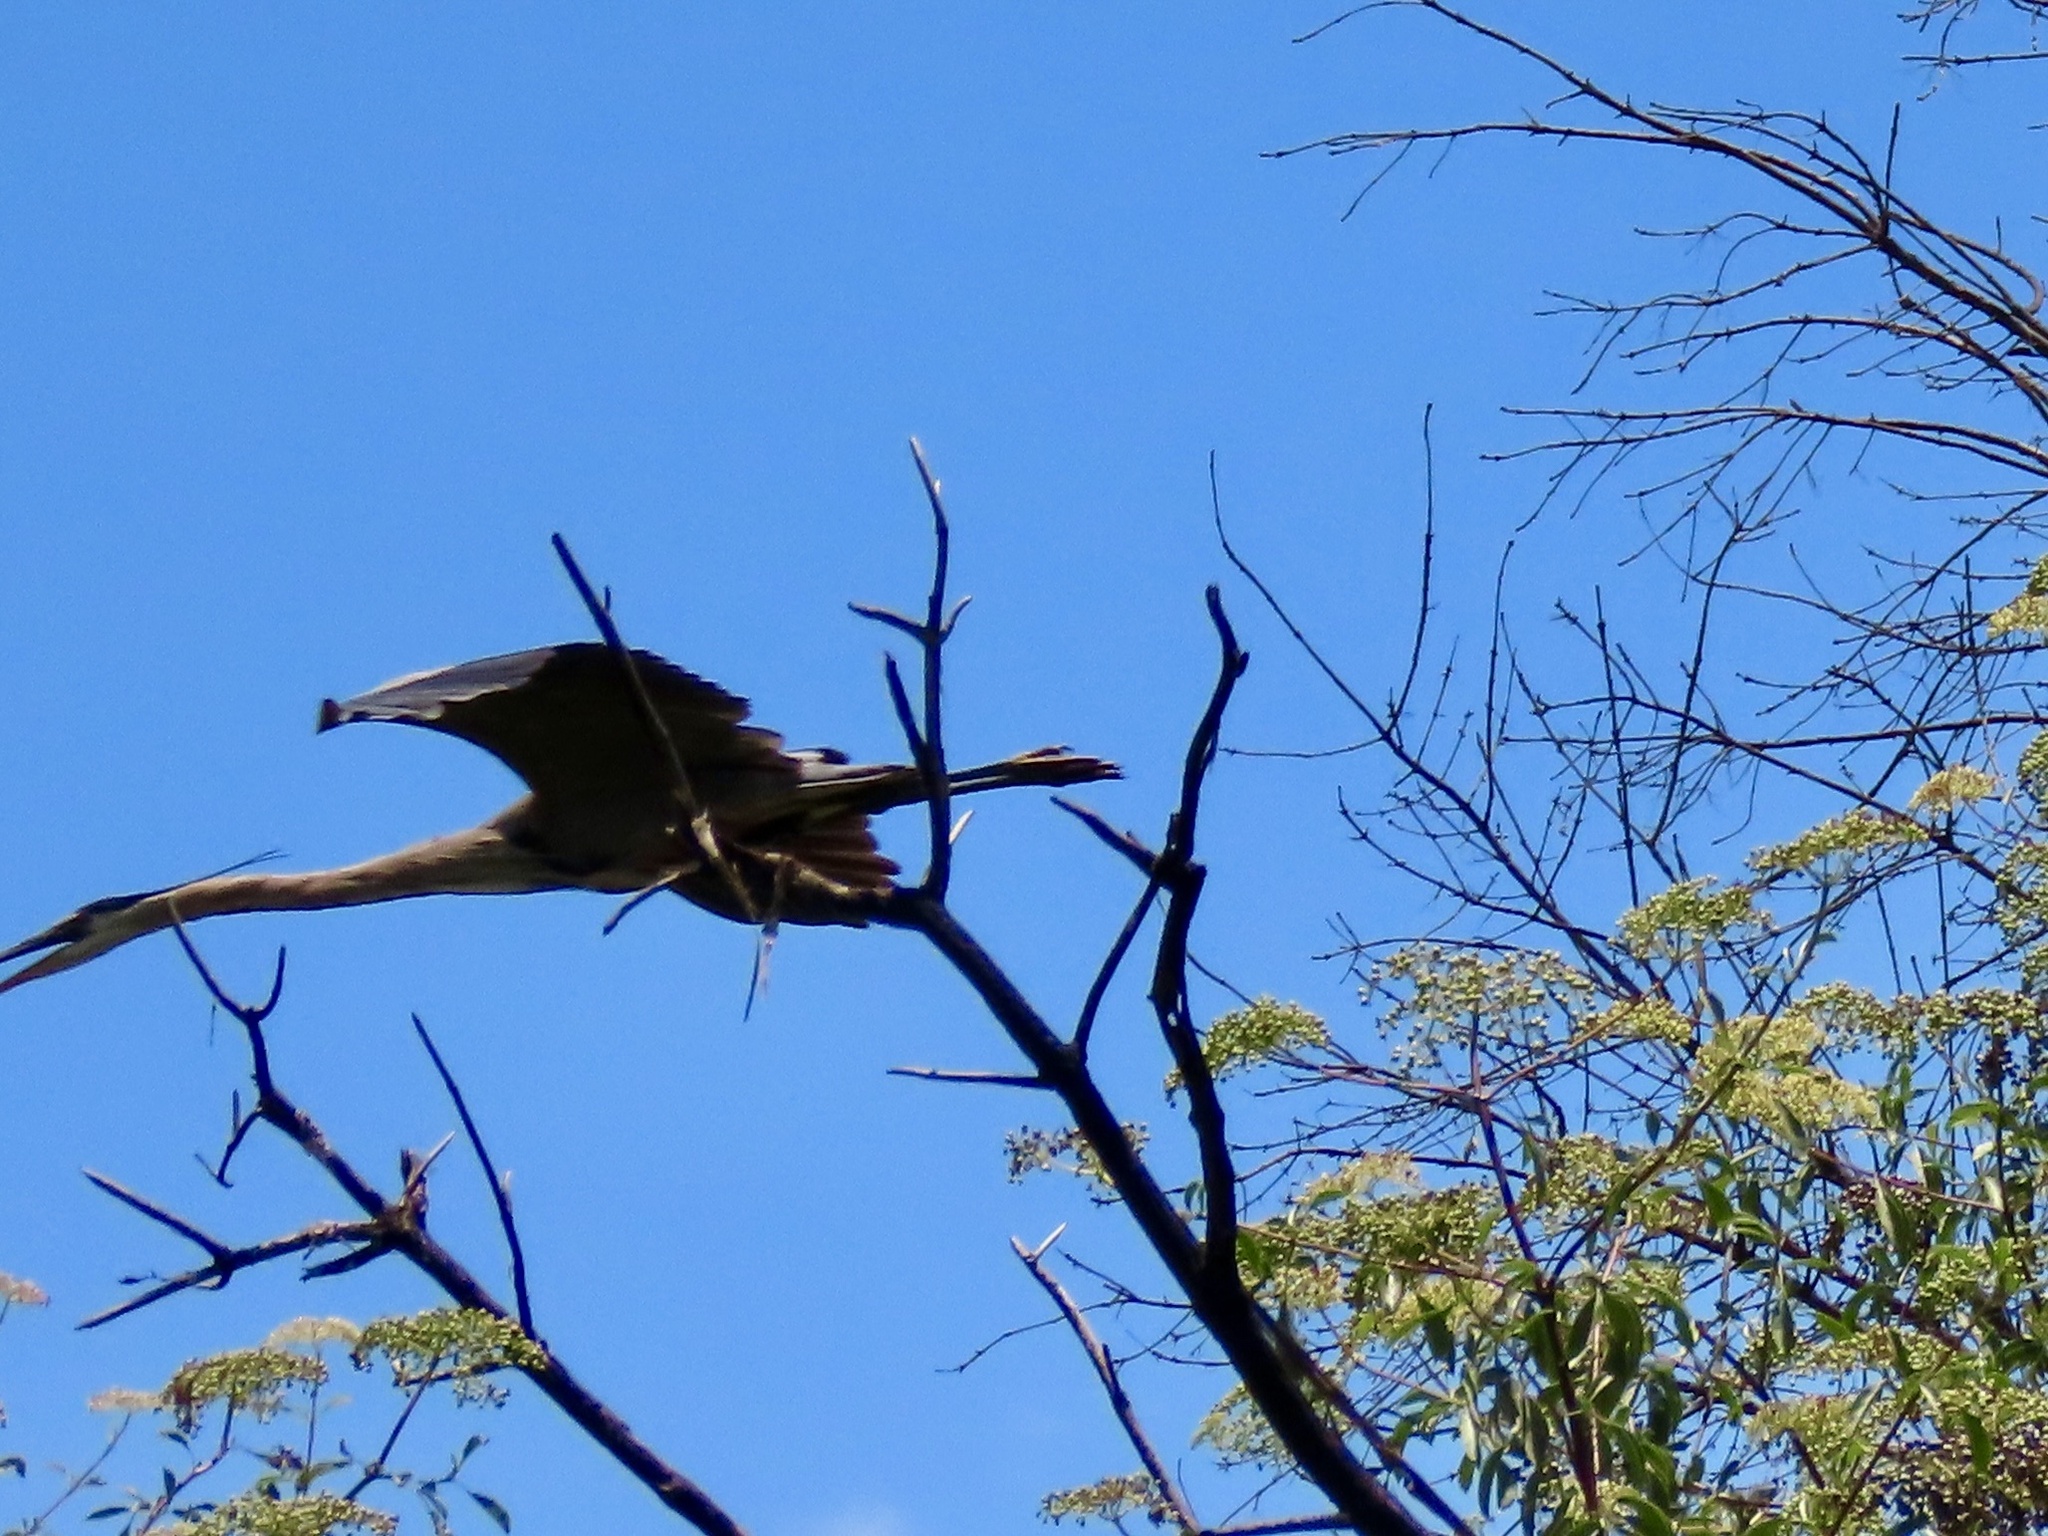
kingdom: Animalia
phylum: Chordata
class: Aves
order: Pelecaniformes
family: Ardeidae
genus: Ardea
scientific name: Ardea herodias
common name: Great blue heron
